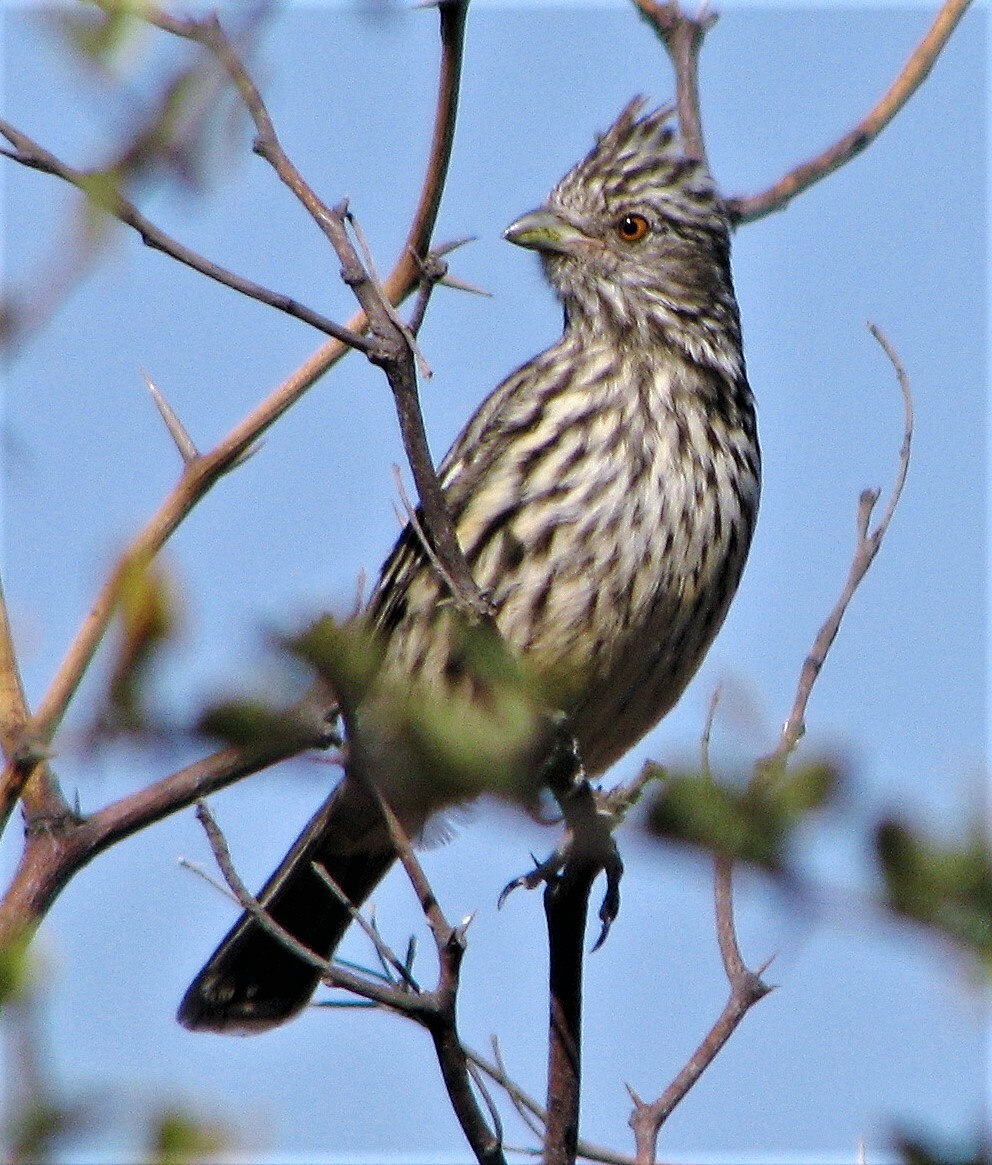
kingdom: Animalia
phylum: Chordata
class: Aves
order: Passeriformes
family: Cotingidae
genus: Phytotoma
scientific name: Phytotoma rutila
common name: White-tipped plantcutter
